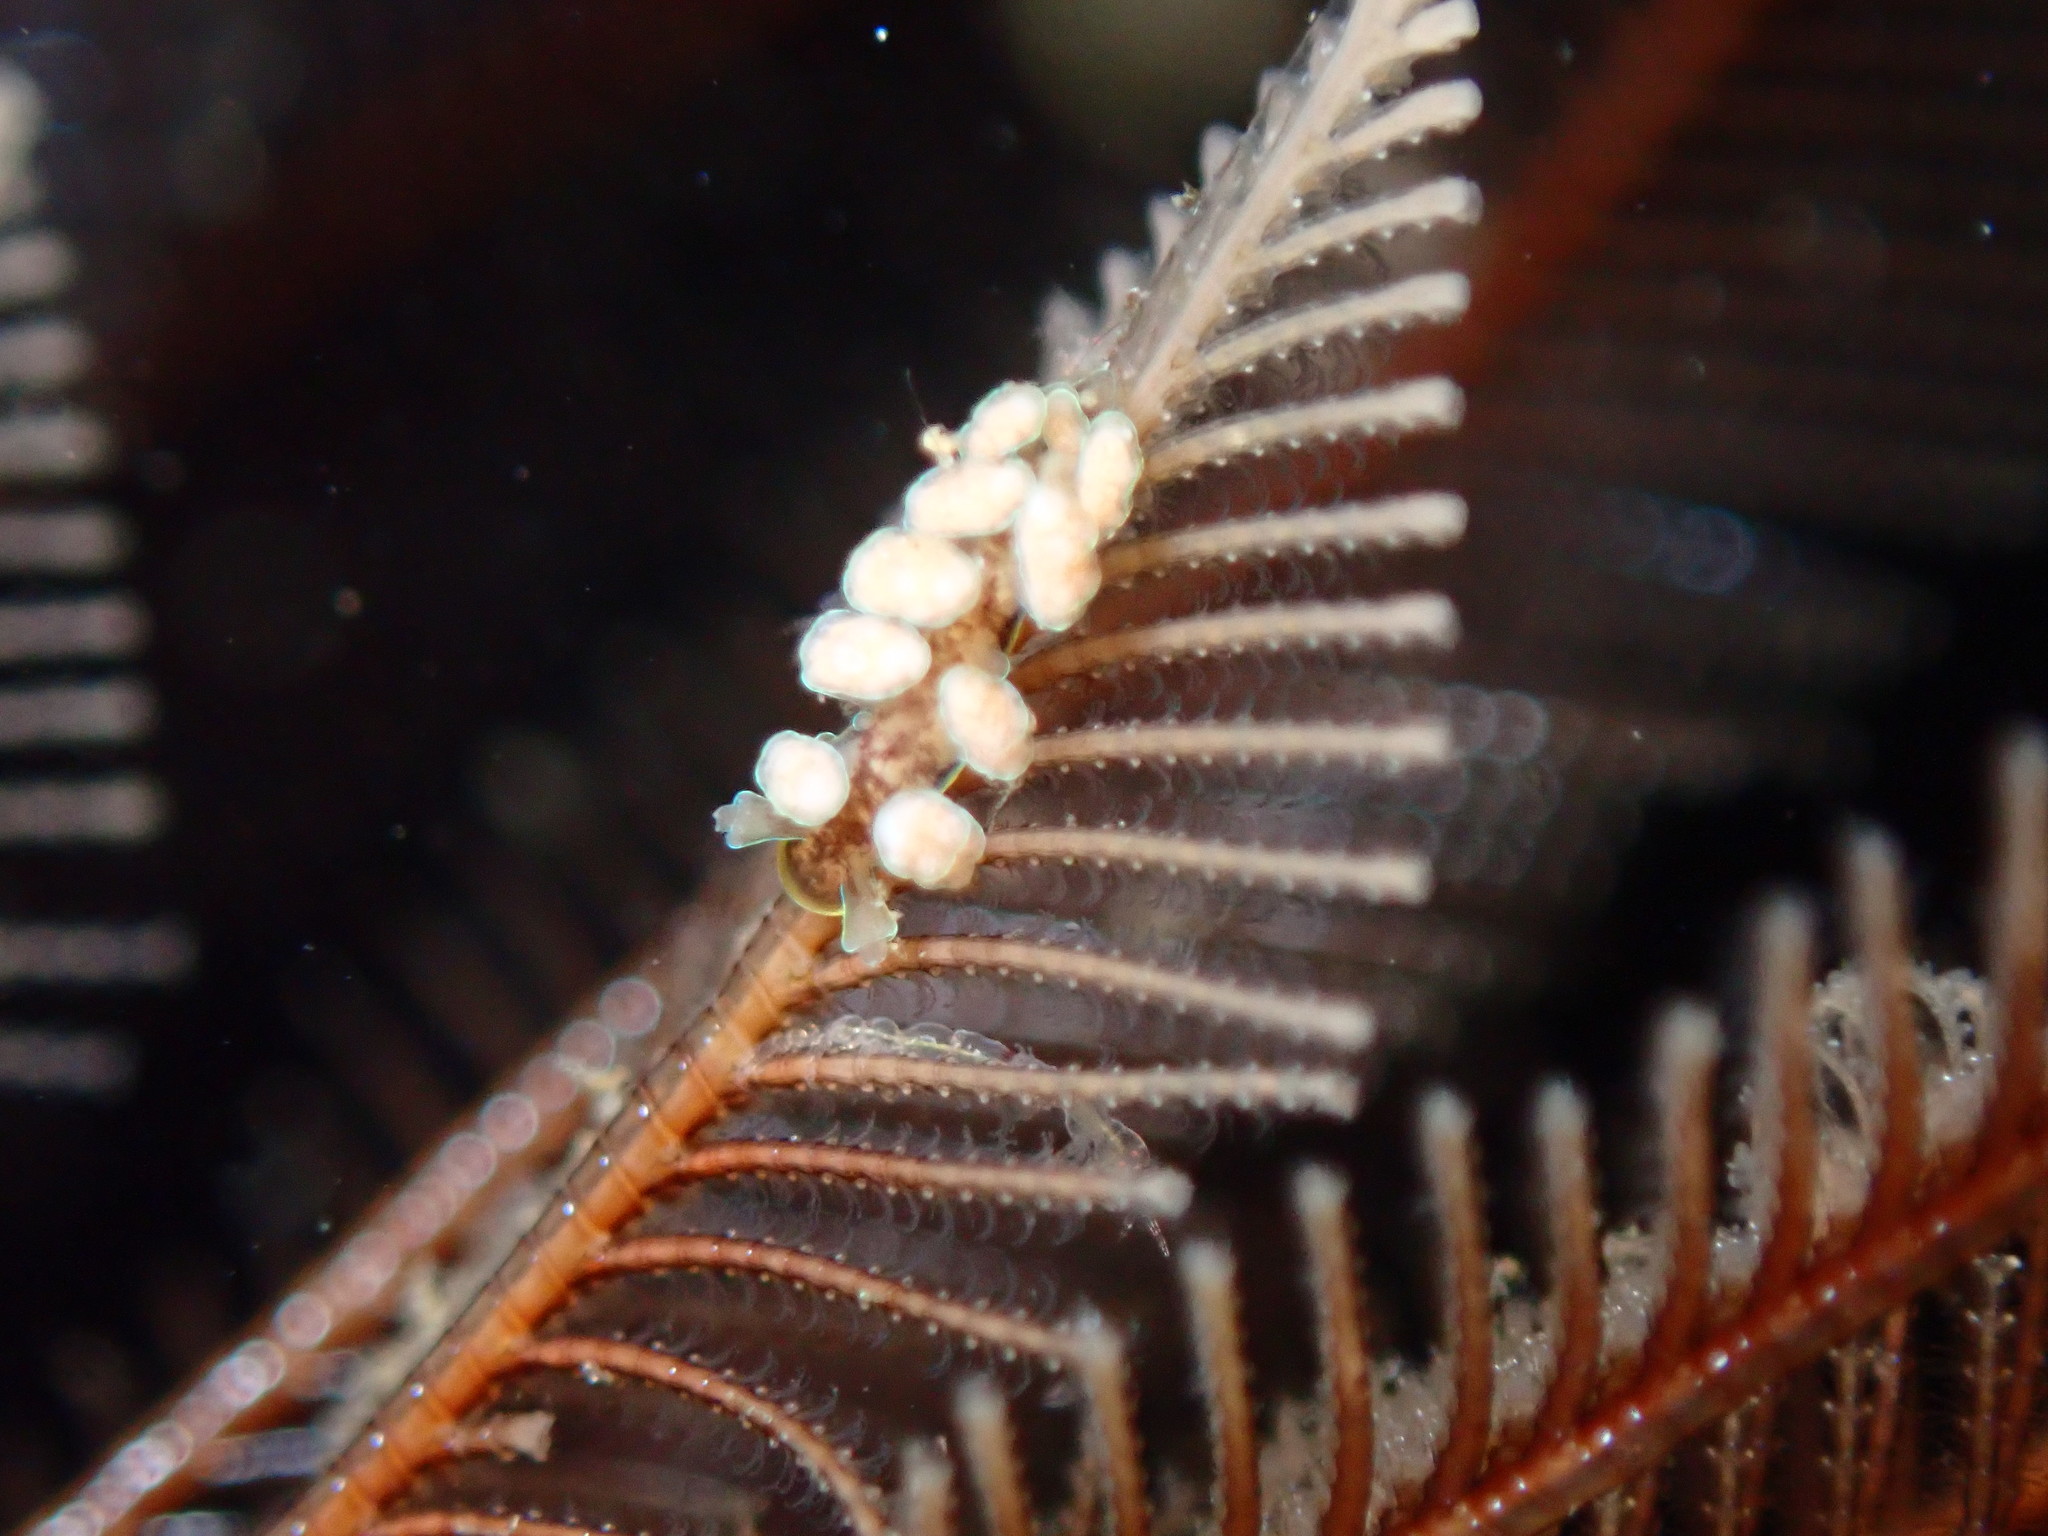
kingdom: Animalia
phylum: Mollusca
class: Gastropoda
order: Nudibranchia
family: Dotidae
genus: Doto
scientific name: Doto columbiana
